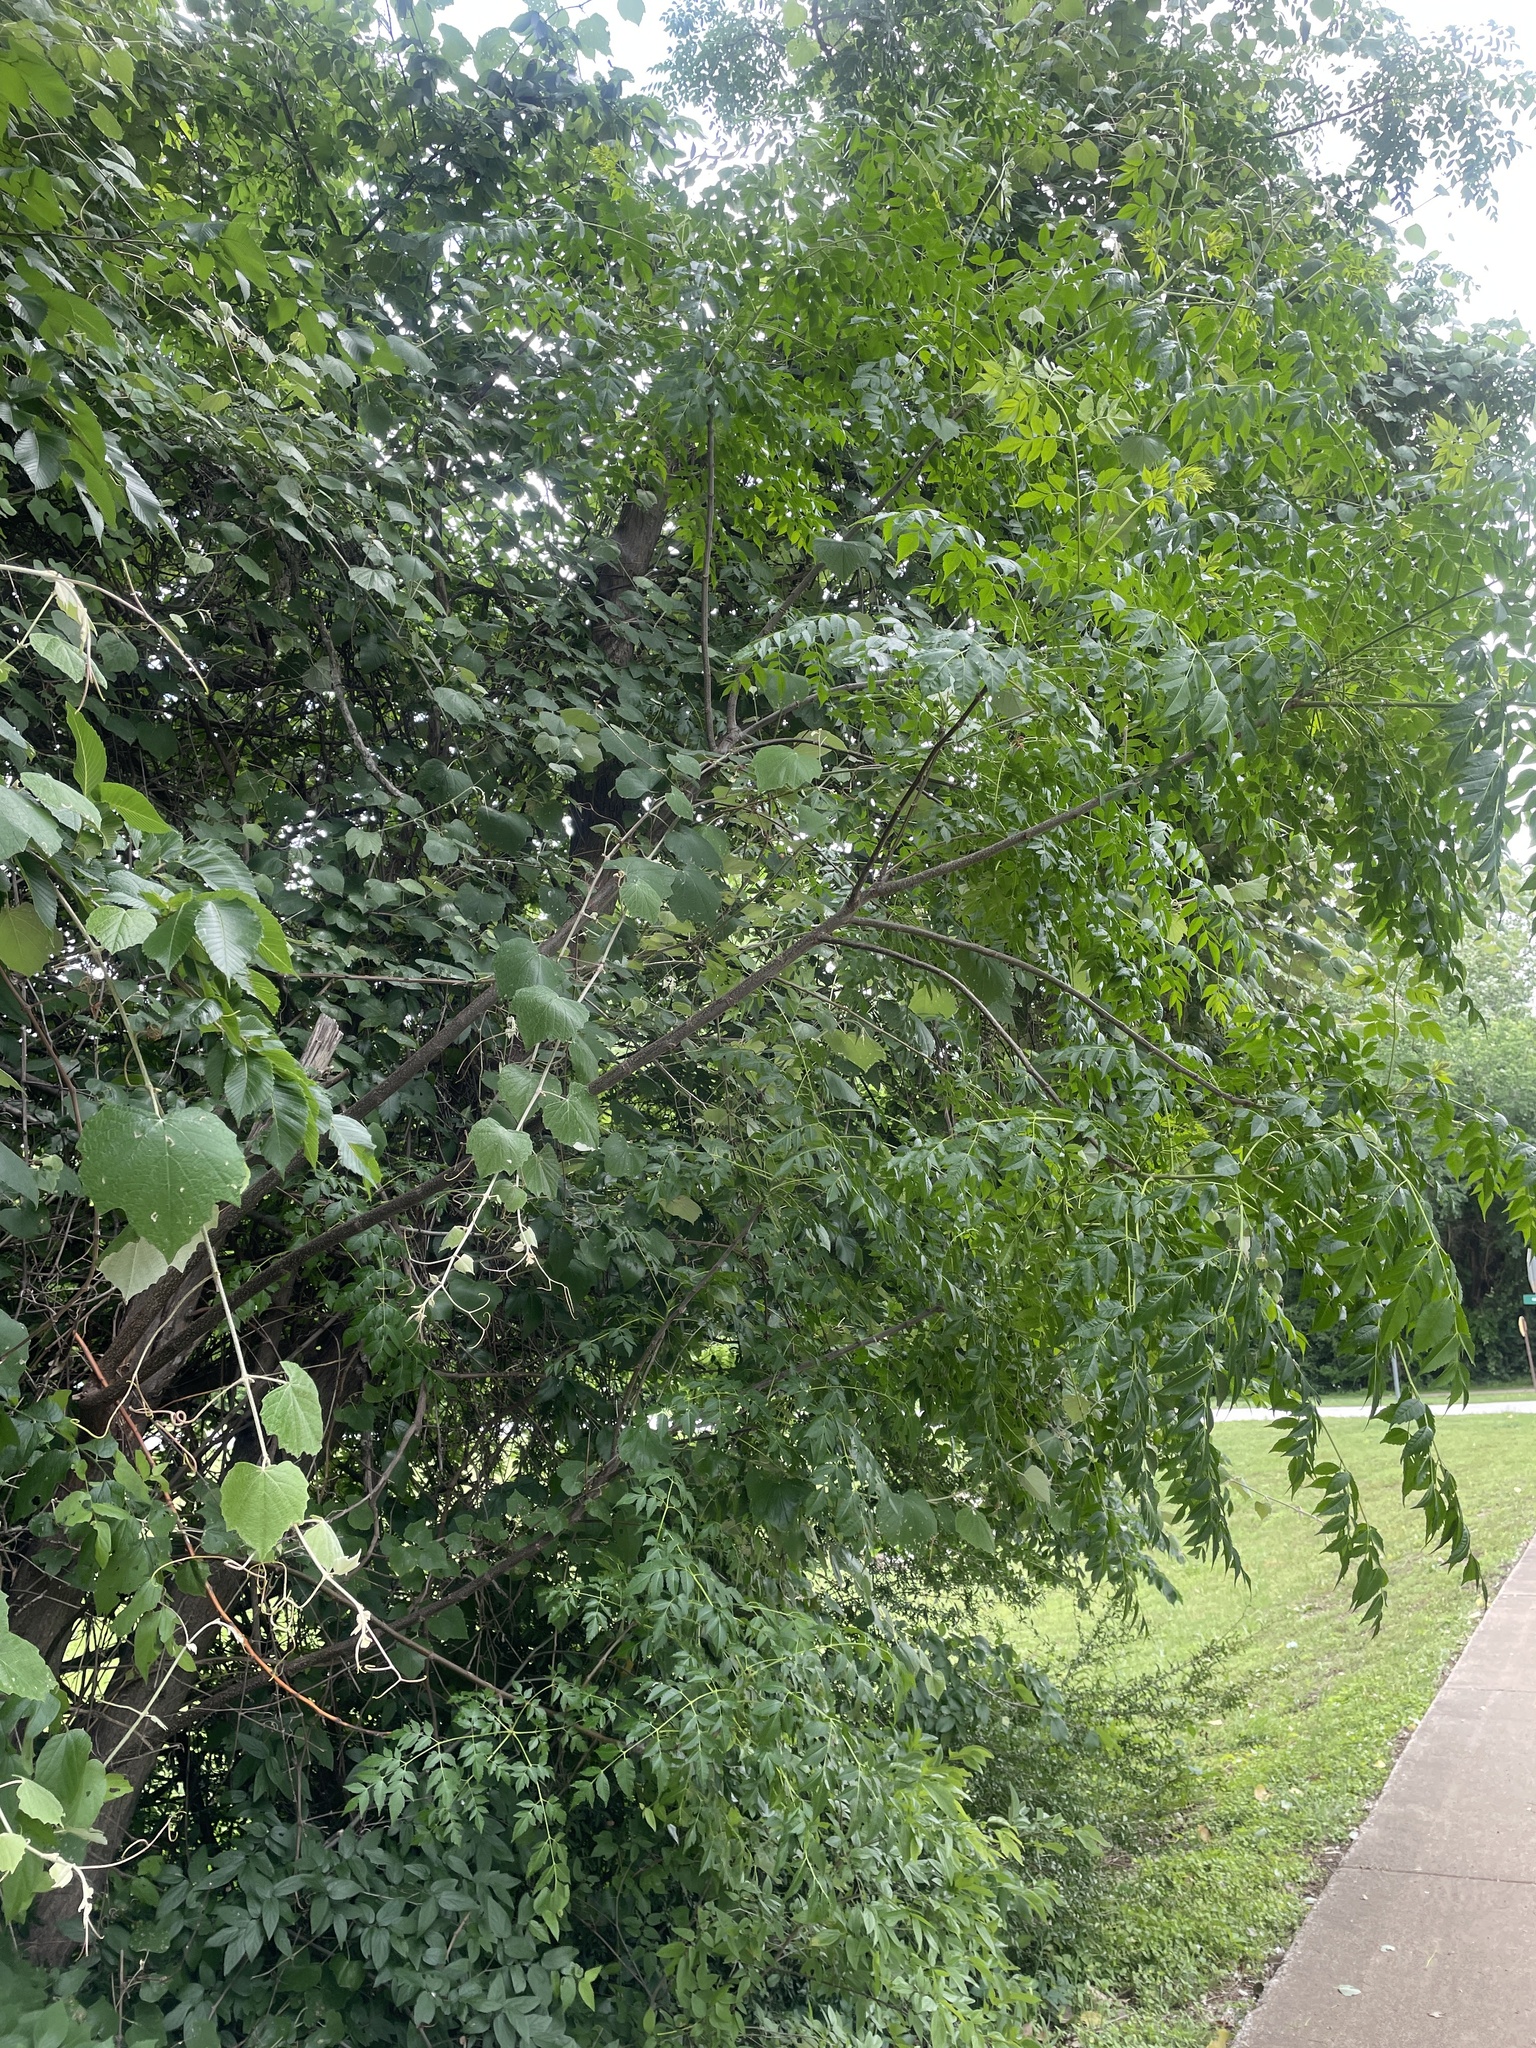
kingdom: Plantae
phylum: Tracheophyta
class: Magnoliopsida
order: Sapindales
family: Meliaceae
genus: Melia
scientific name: Melia azedarach
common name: Chinaberrytree
